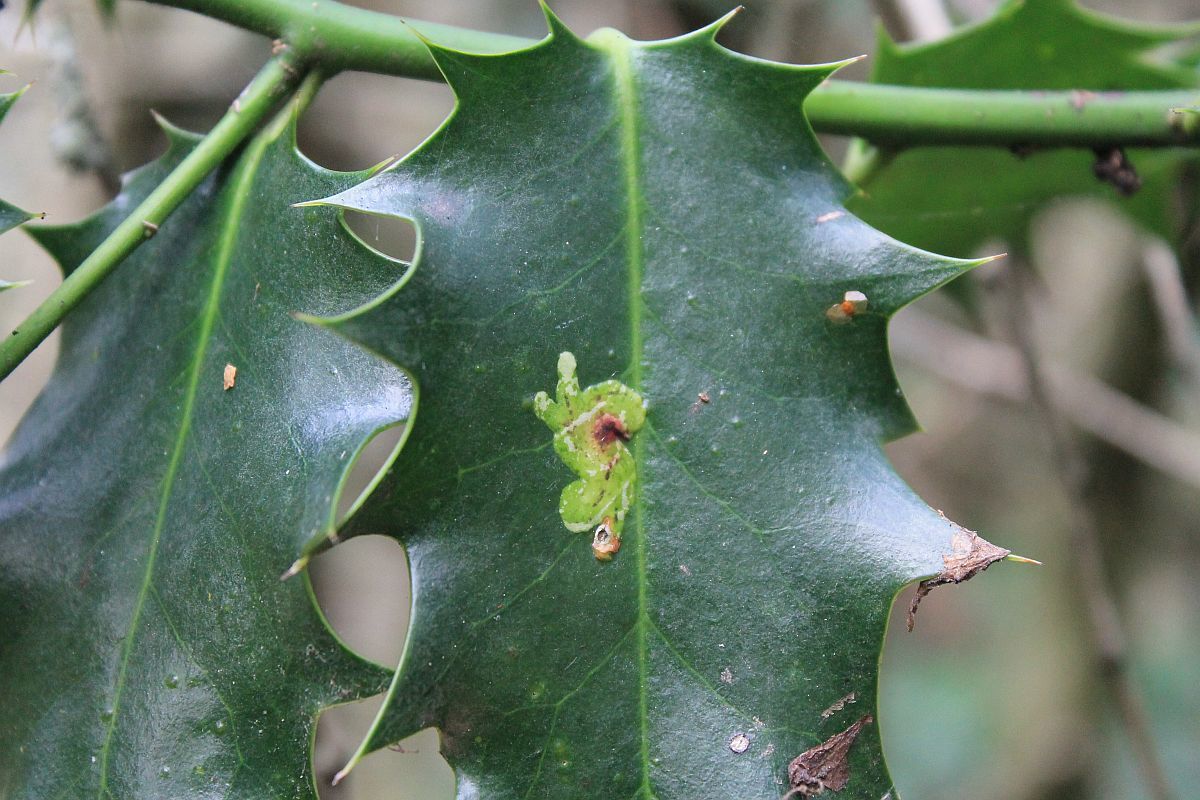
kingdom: Animalia
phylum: Arthropoda
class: Insecta
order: Diptera
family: Agromyzidae
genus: Phytomyza
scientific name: Phytomyza ilicis
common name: Holly leafminer
